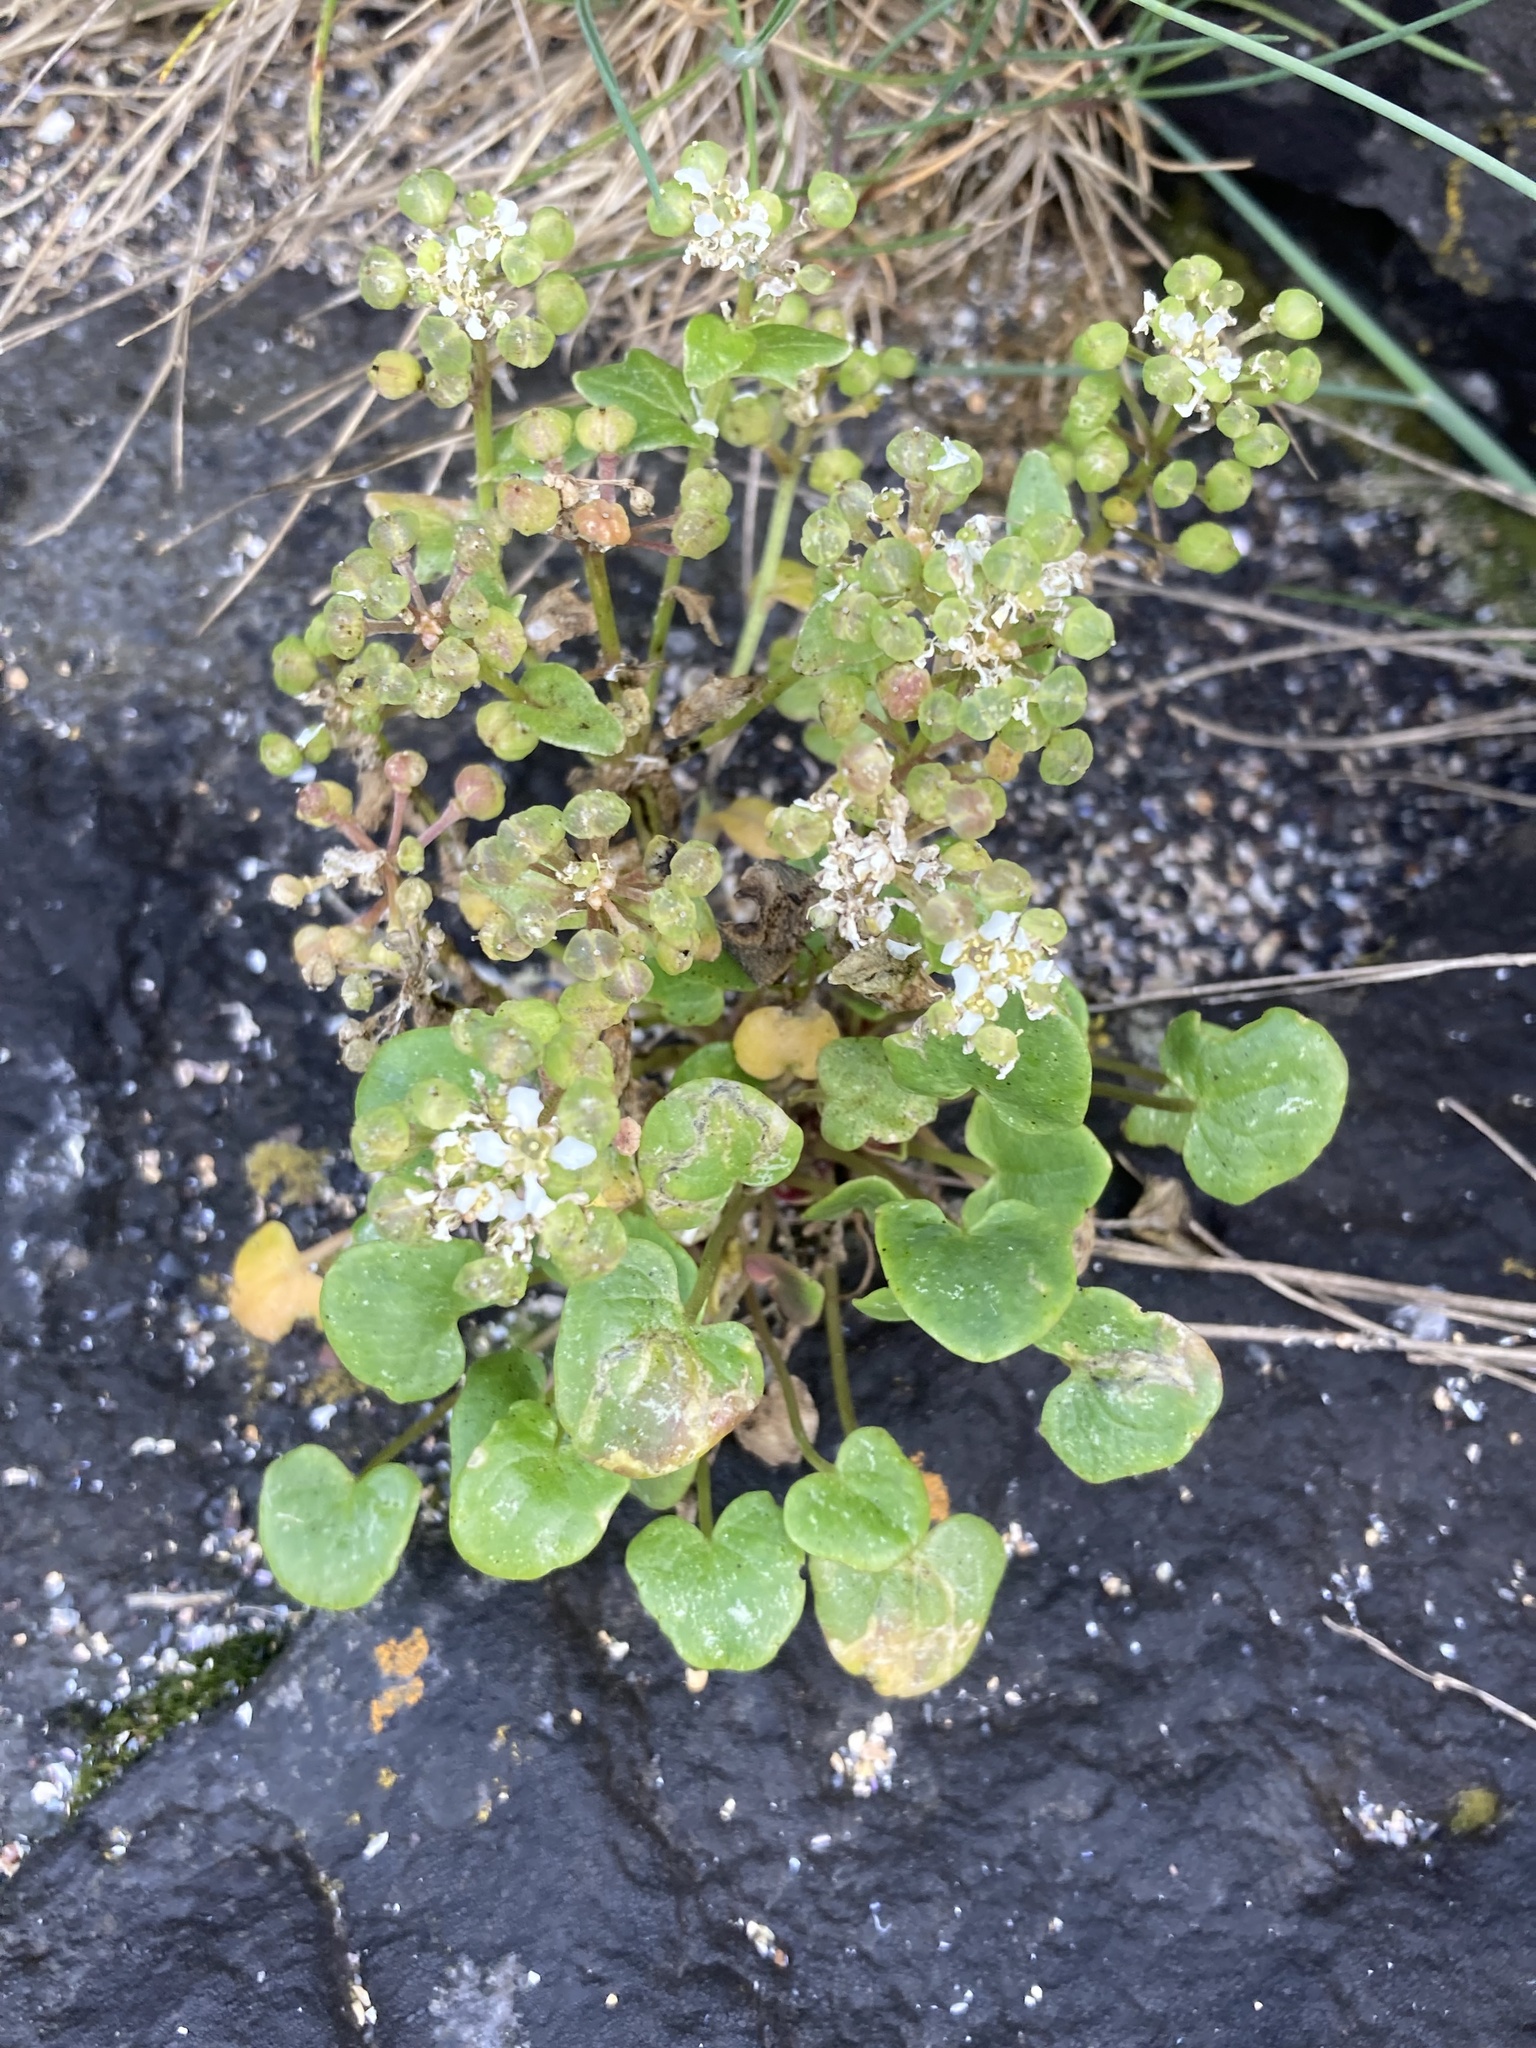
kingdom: Plantae
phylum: Tracheophyta
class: Magnoliopsida
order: Brassicales
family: Brassicaceae
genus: Cochlearia
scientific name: Cochlearia officinalis
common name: Scurvy-grass
